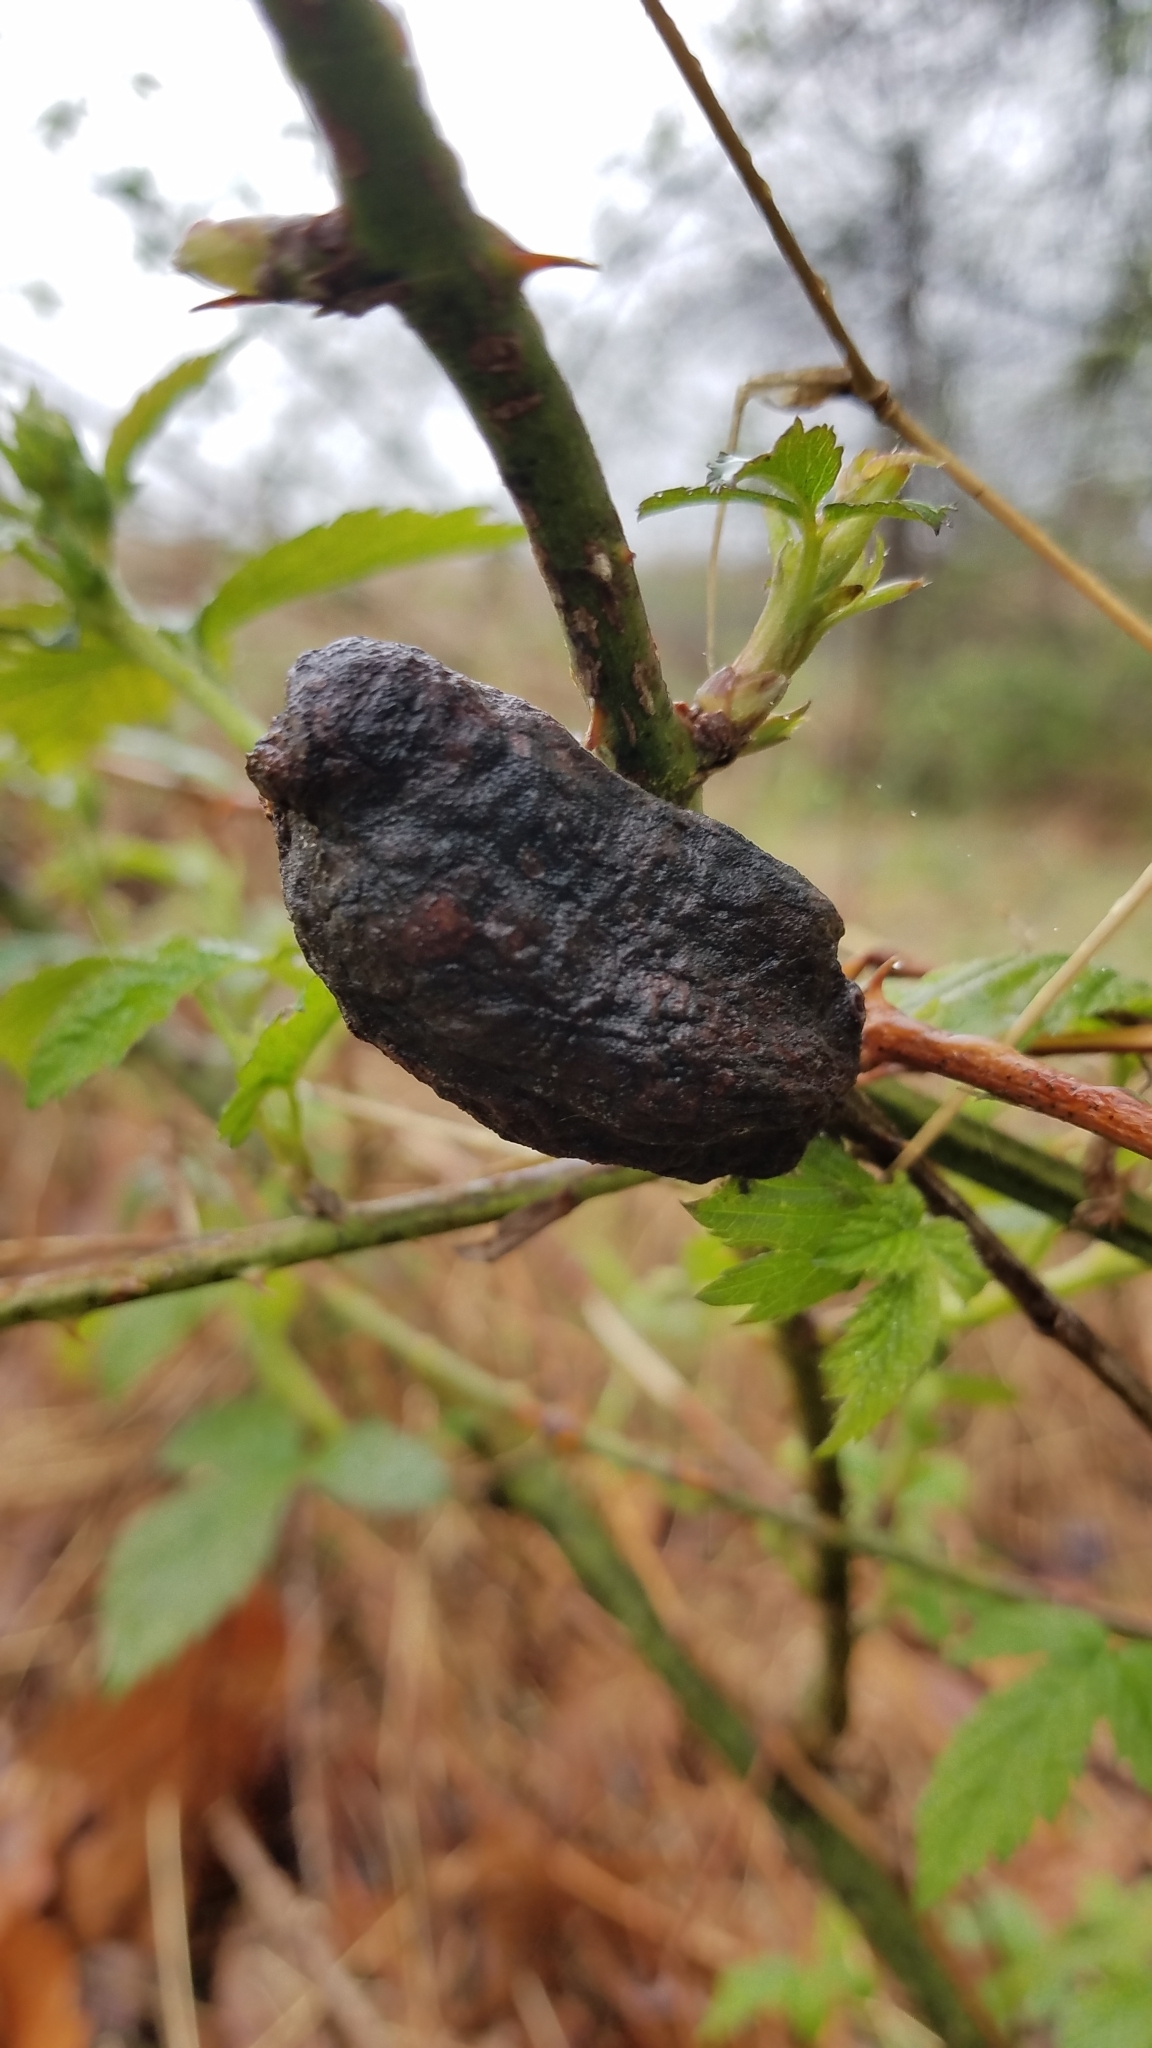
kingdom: Animalia
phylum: Arthropoda
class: Insecta
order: Hymenoptera
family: Cynipidae
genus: Diastrophus
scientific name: Diastrophus
